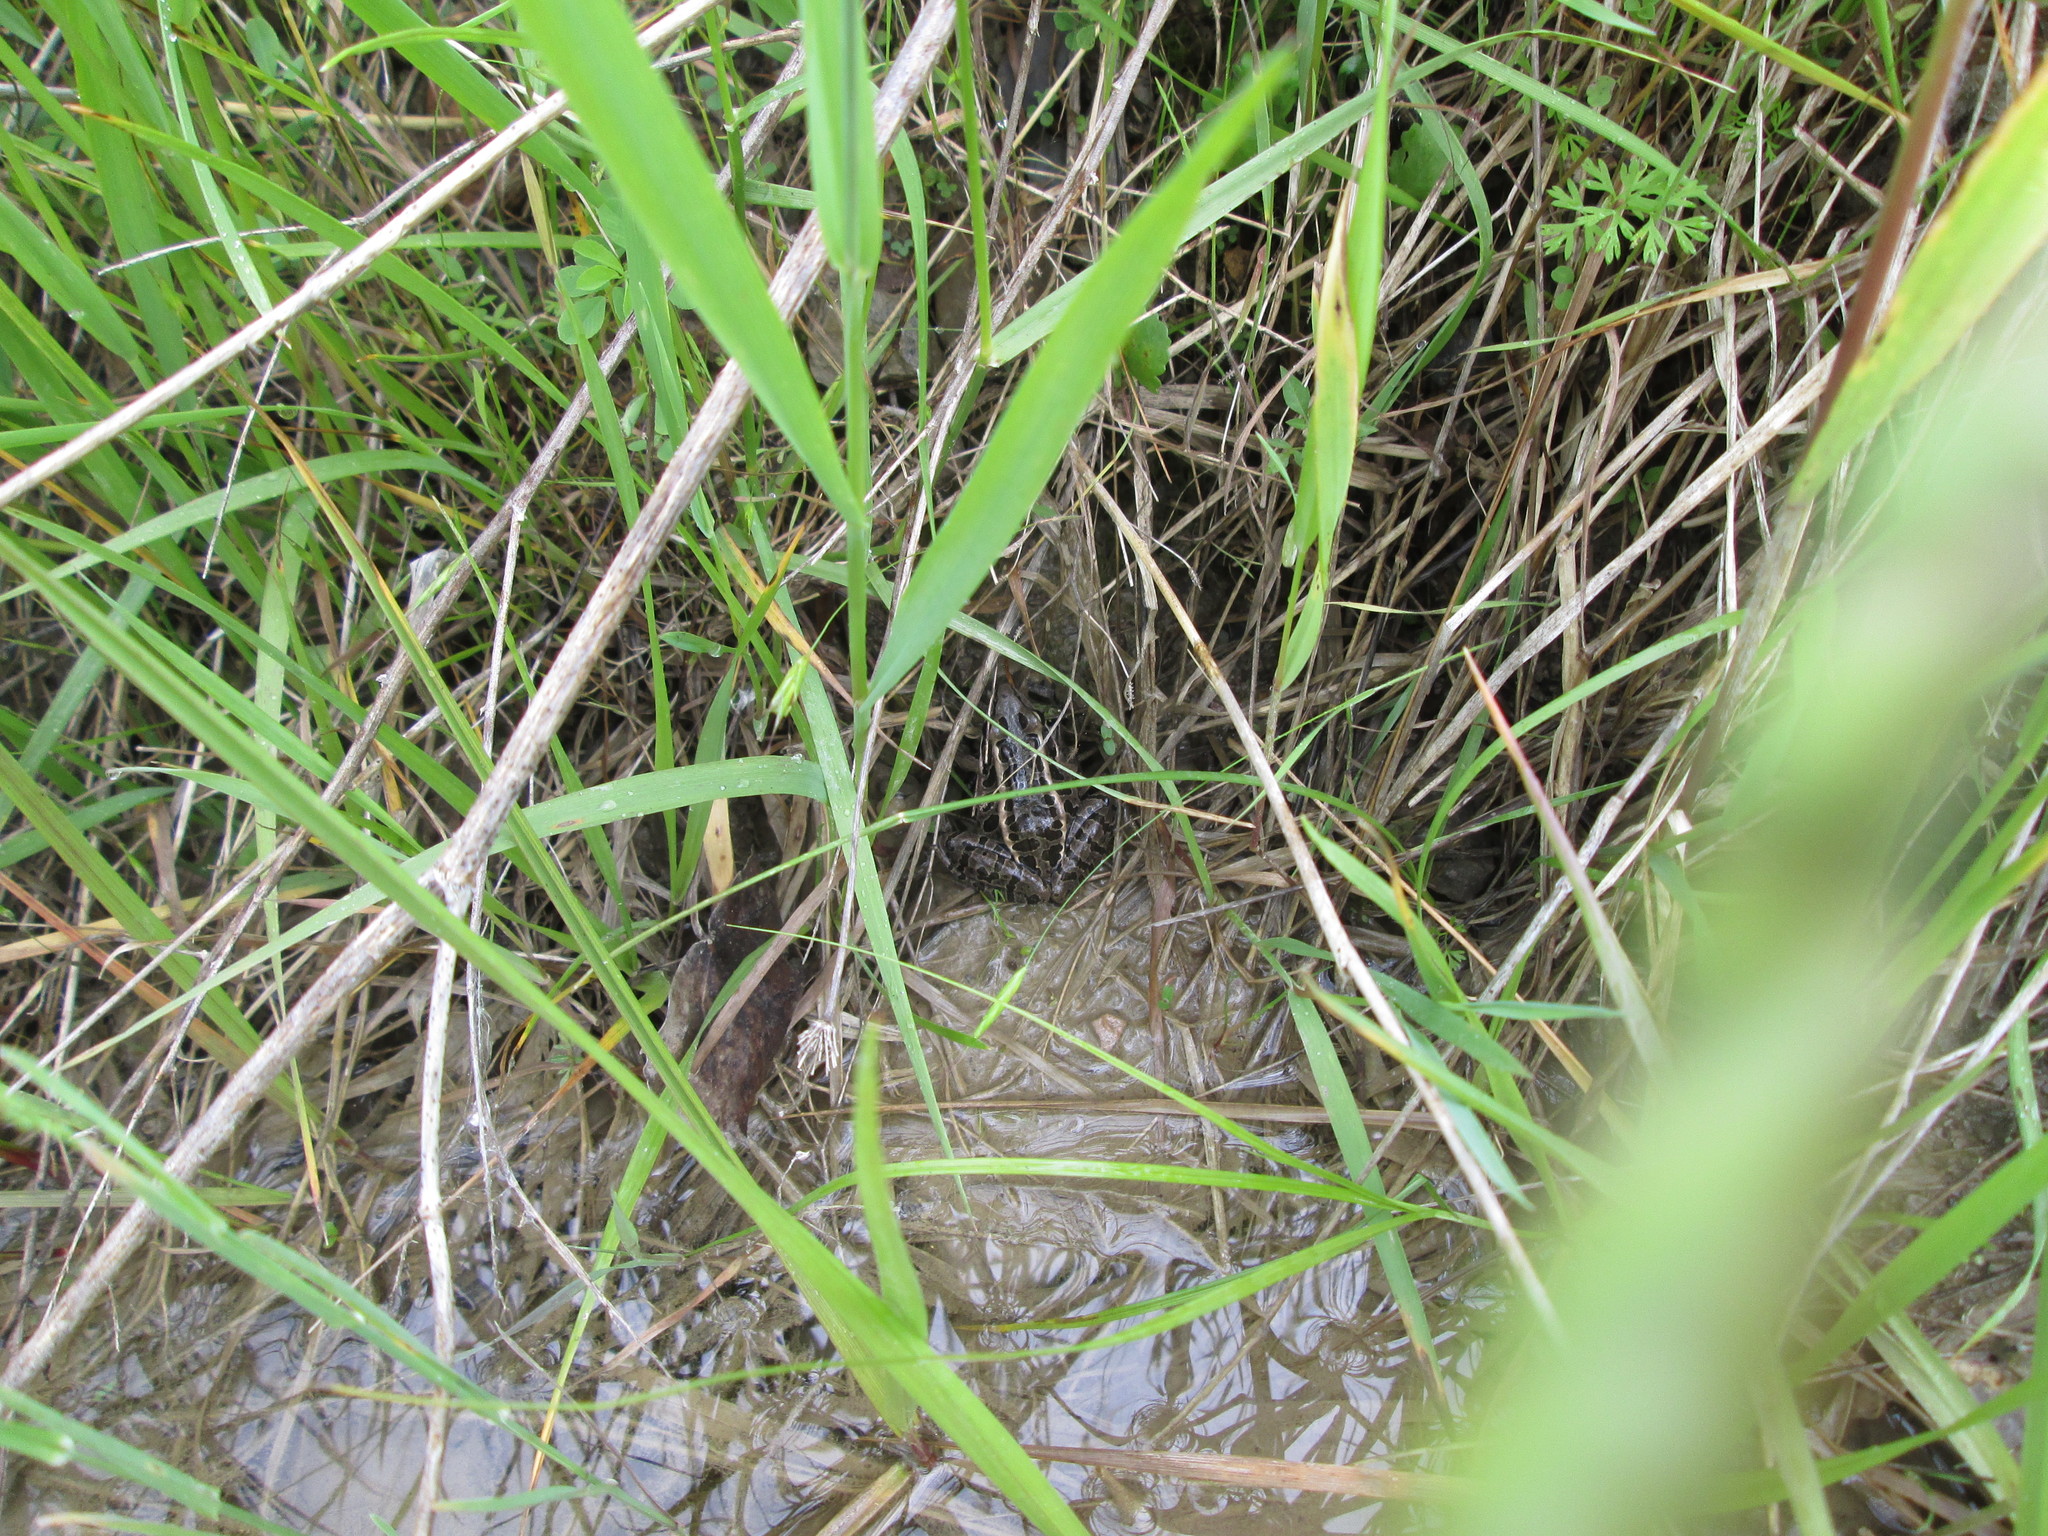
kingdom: Animalia
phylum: Chordata
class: Amphibia
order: Anura
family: Ranidae
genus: Lithobates
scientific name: Lithobates pipiens
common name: Northern leopard frog
